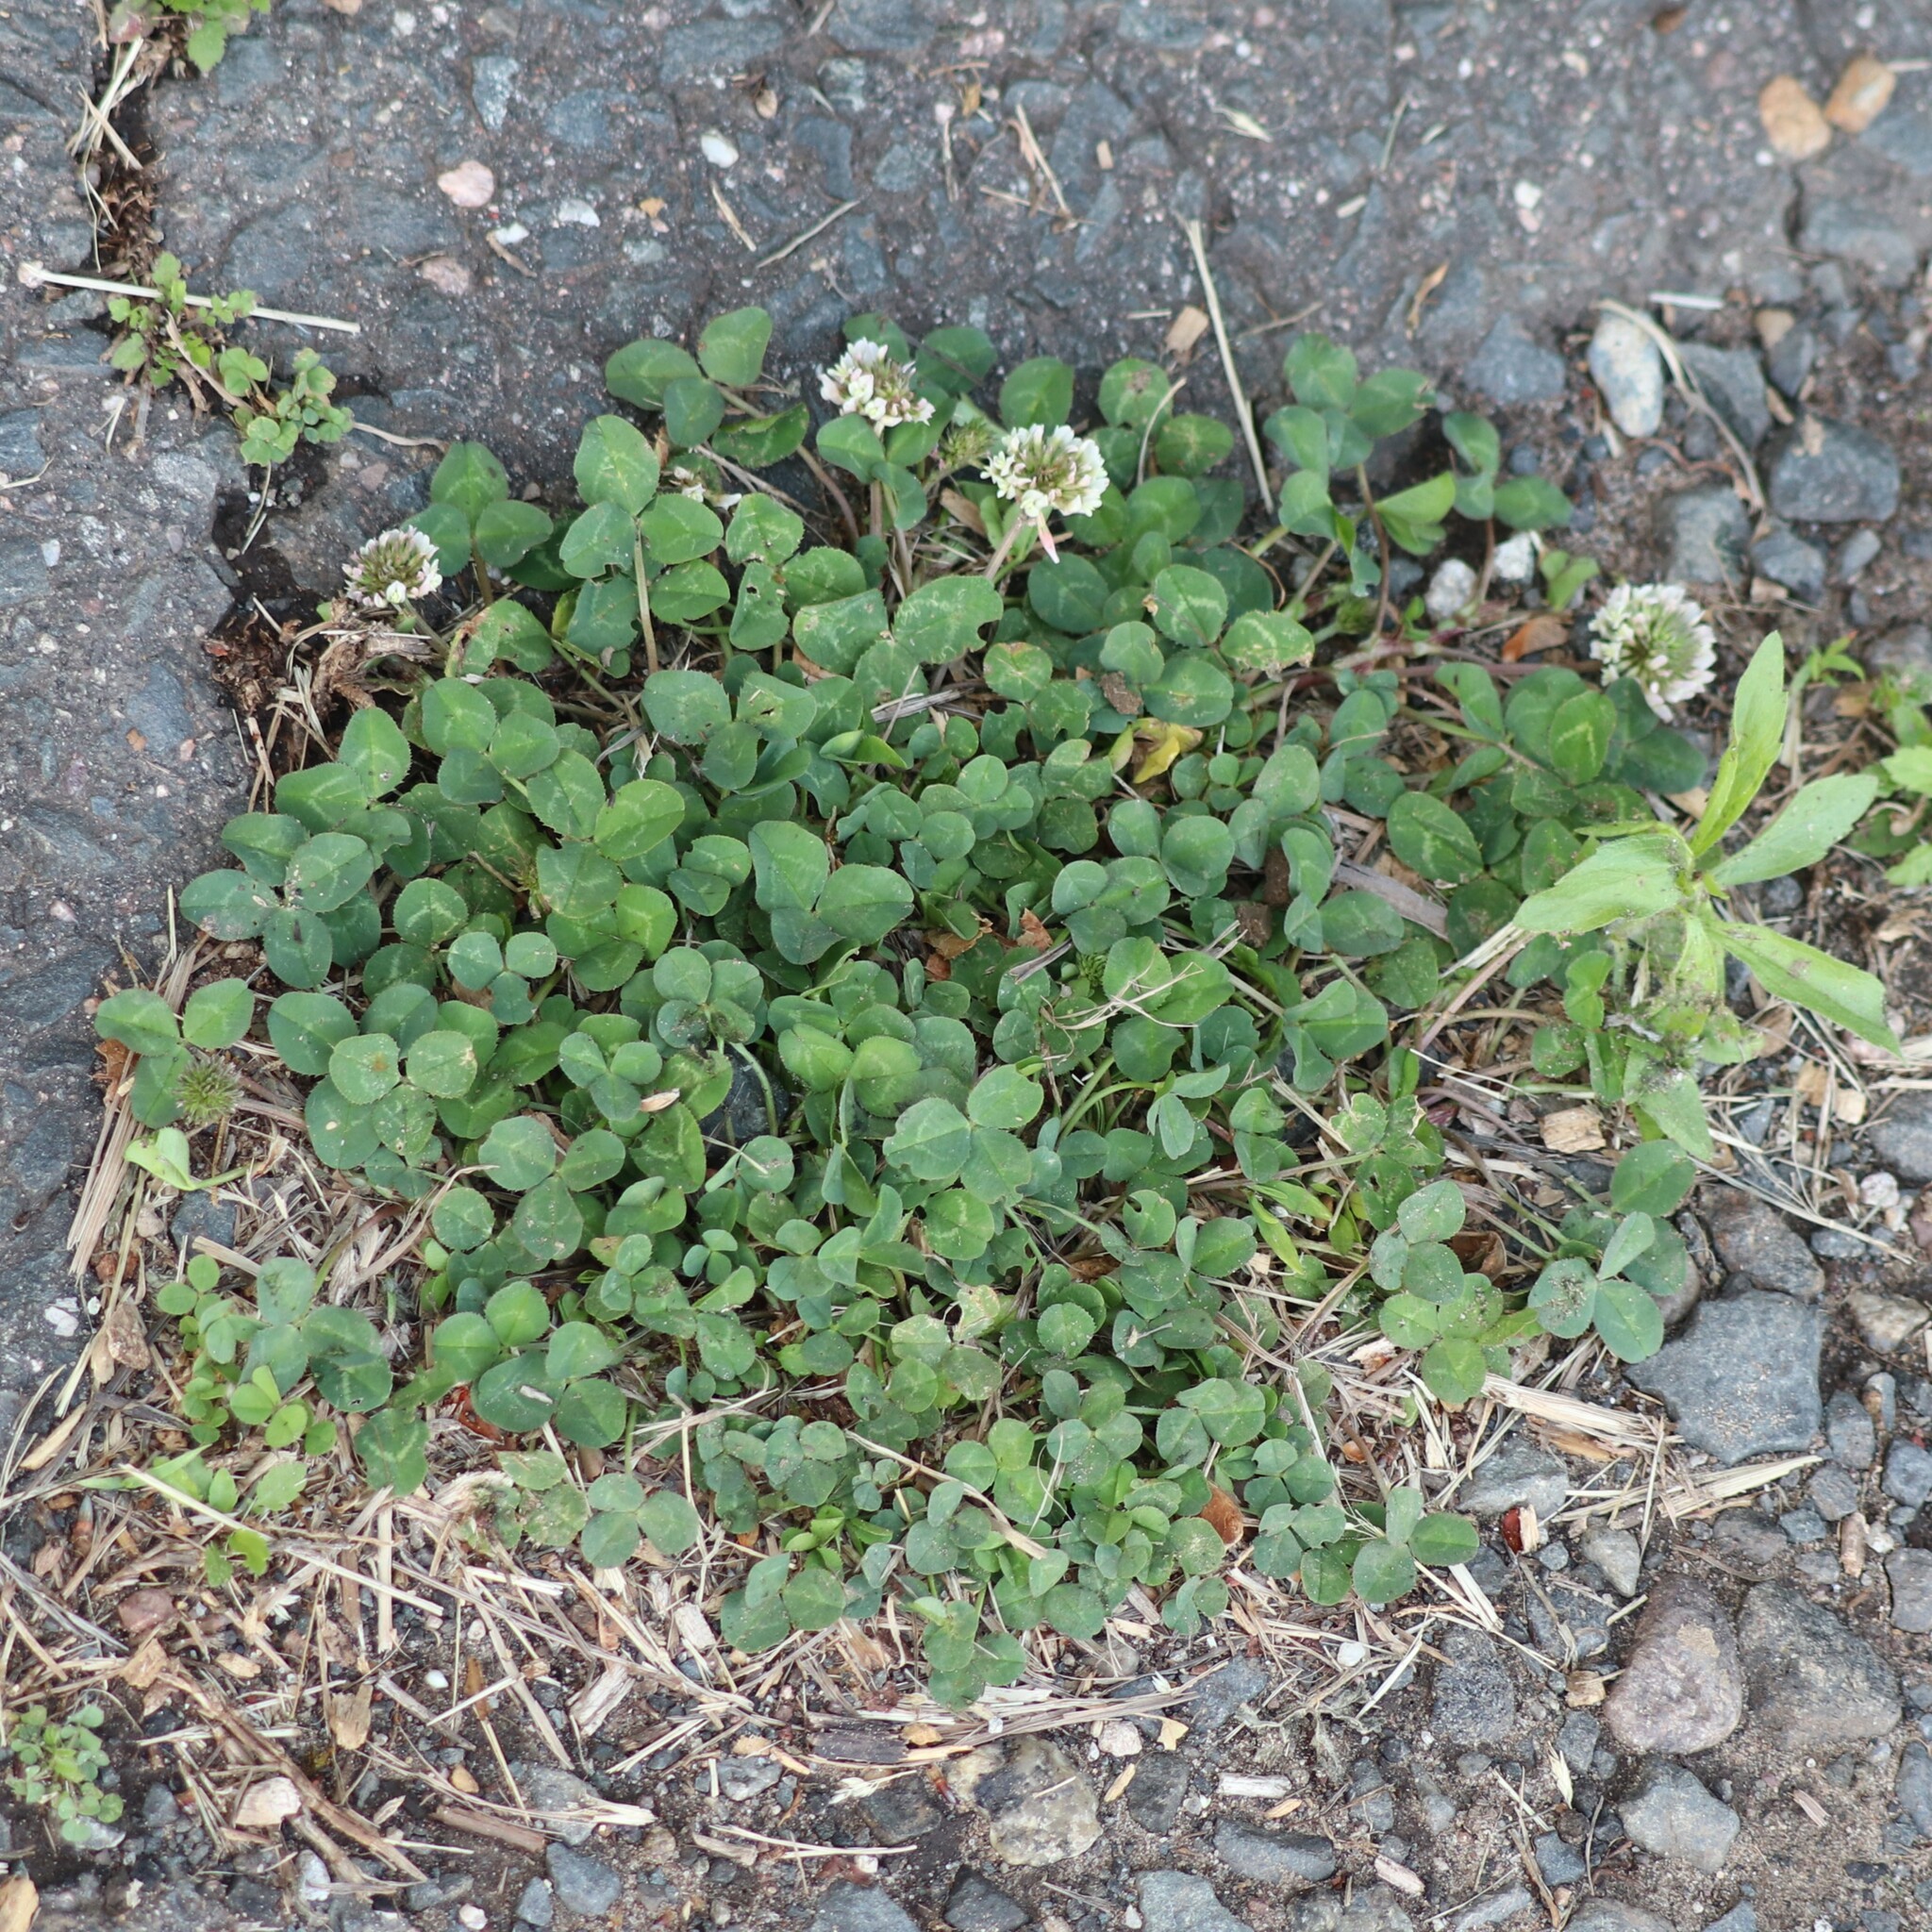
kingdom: Plantae
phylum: Tracheophyta
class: Magnoliopsida
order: Fabales
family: Fabaceae
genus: Trifolium
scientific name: Trifolium repens
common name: White clover
